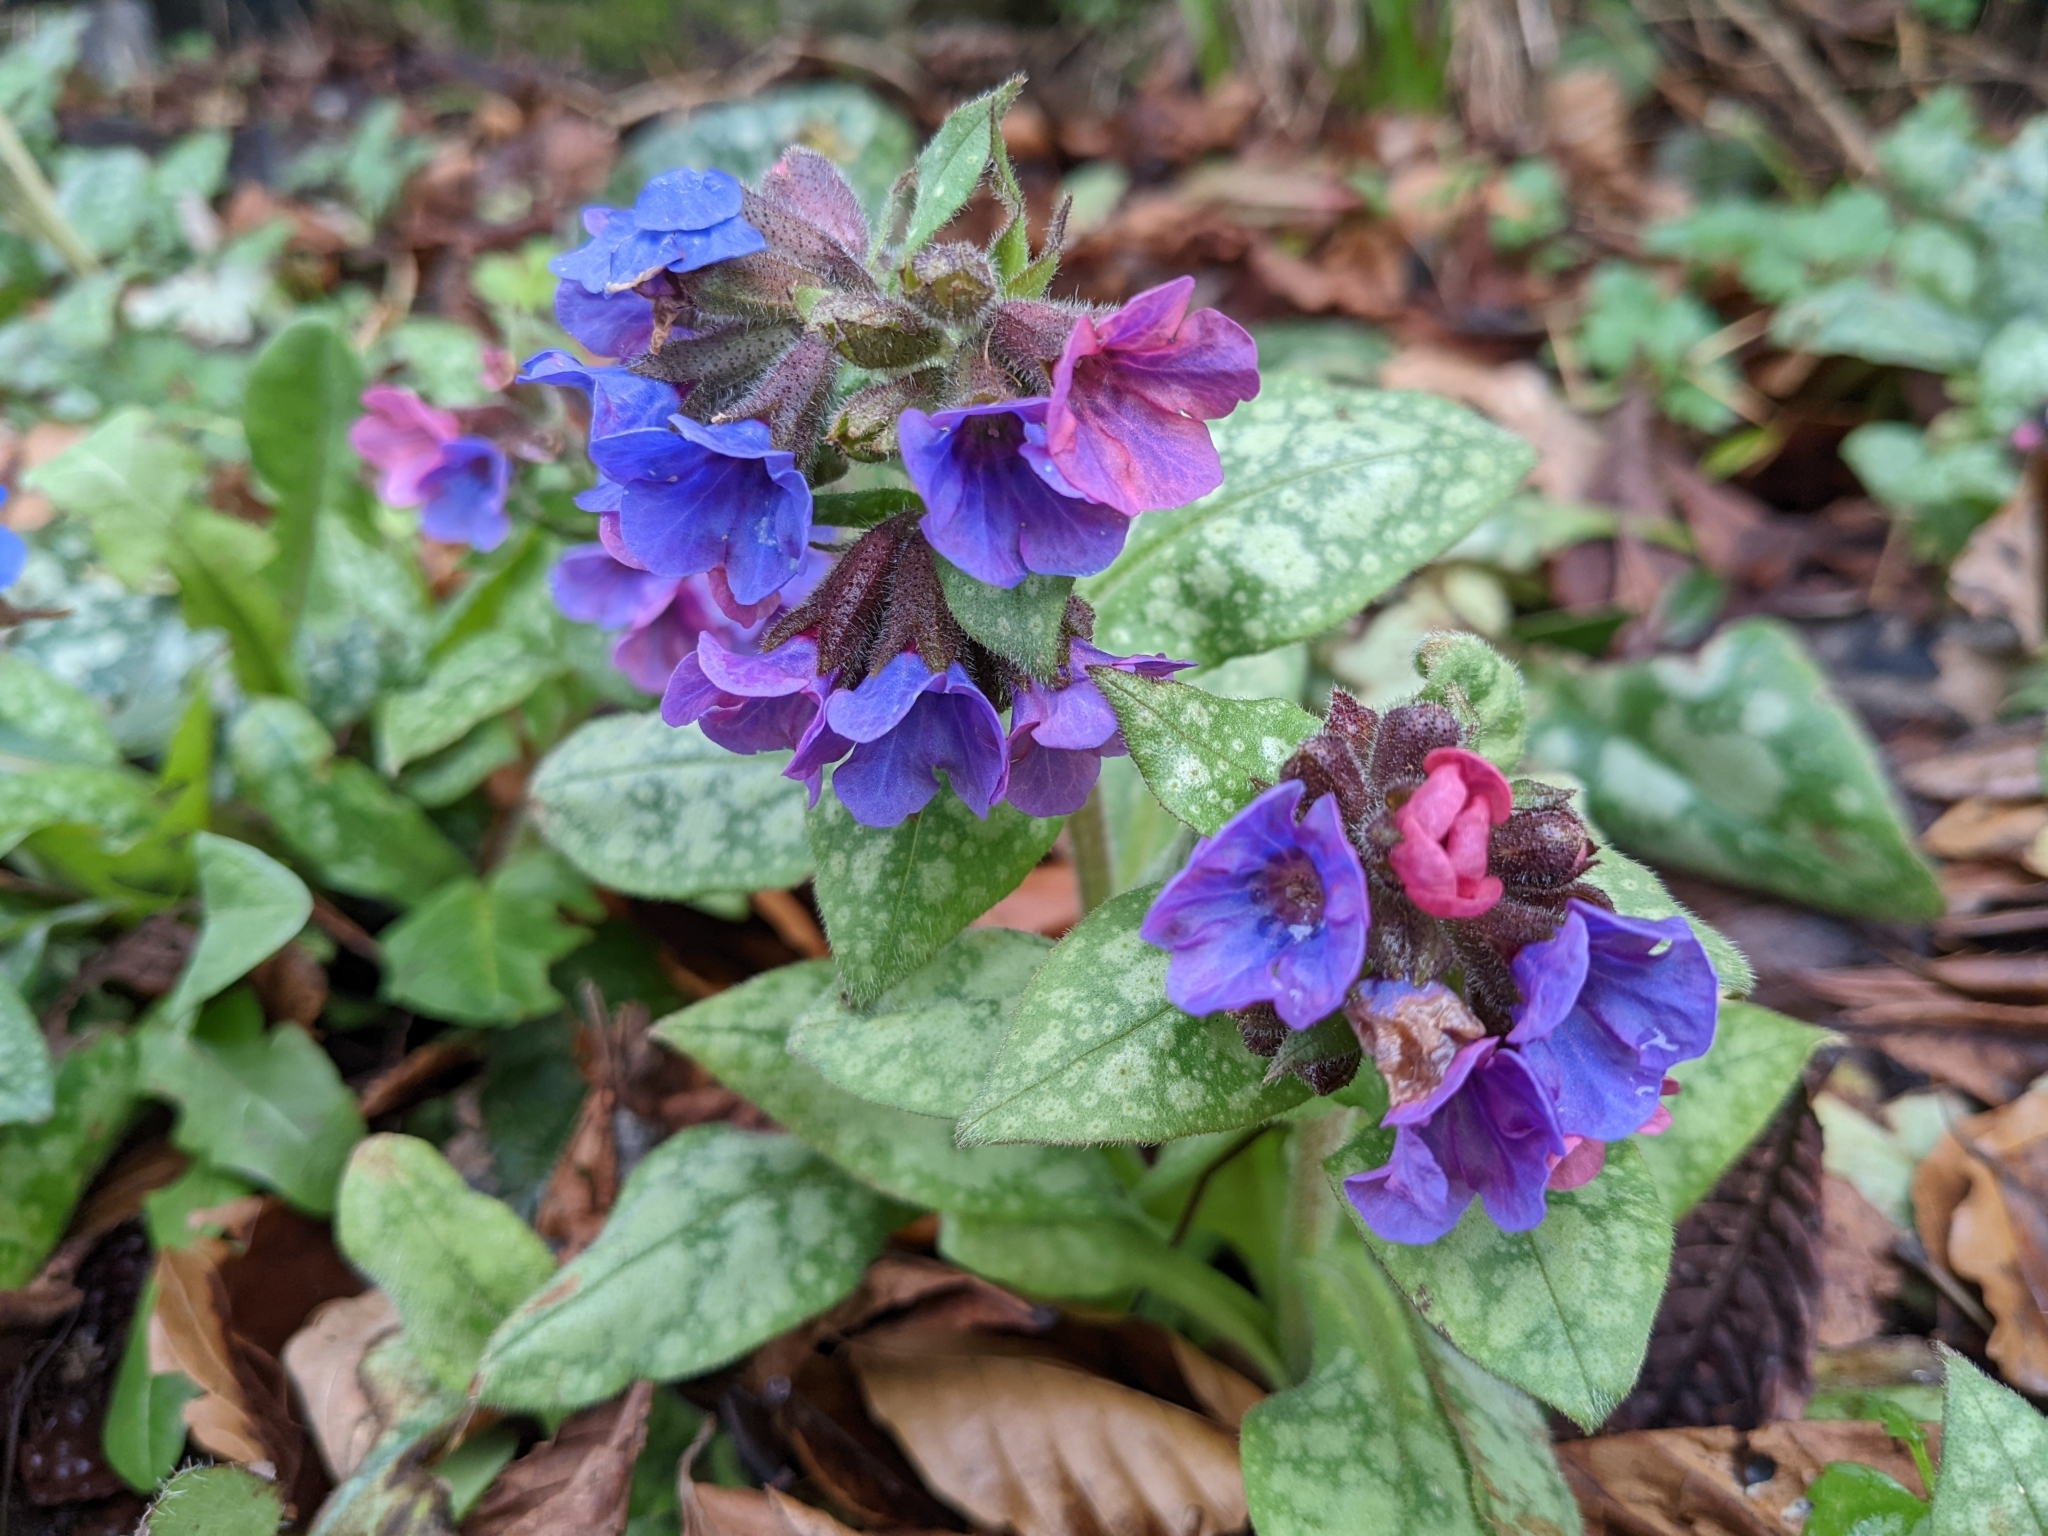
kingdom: Plantae
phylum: Tracheophyta
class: Magnoliopsida
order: Boraginales
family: Boraginaceae
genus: Pulmonaria
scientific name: Pulmonaria officinalis
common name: Lungwort
